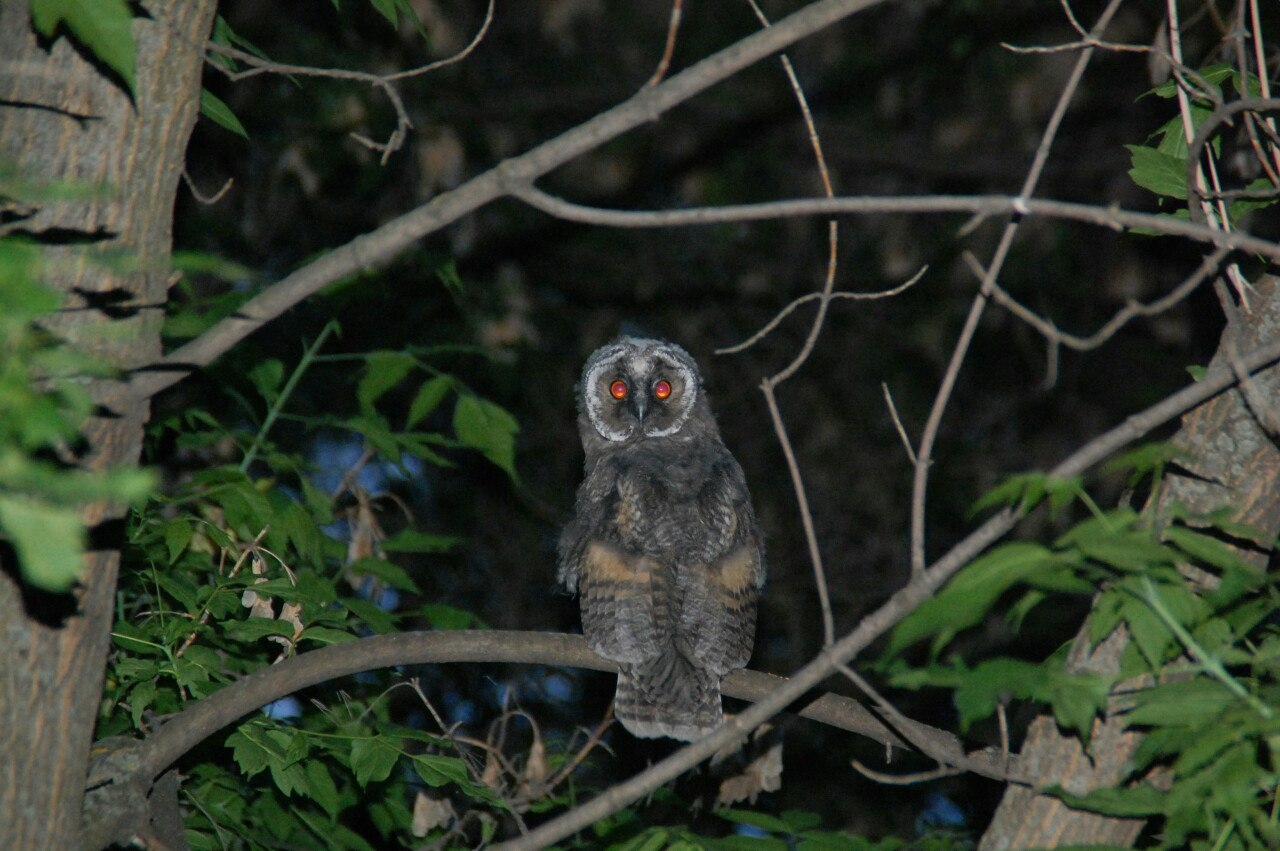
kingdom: Animalia
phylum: Chordata
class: Aves
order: Strigiformes
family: Strigidae
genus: Asio
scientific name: Asio otus
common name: Long-eared owl
